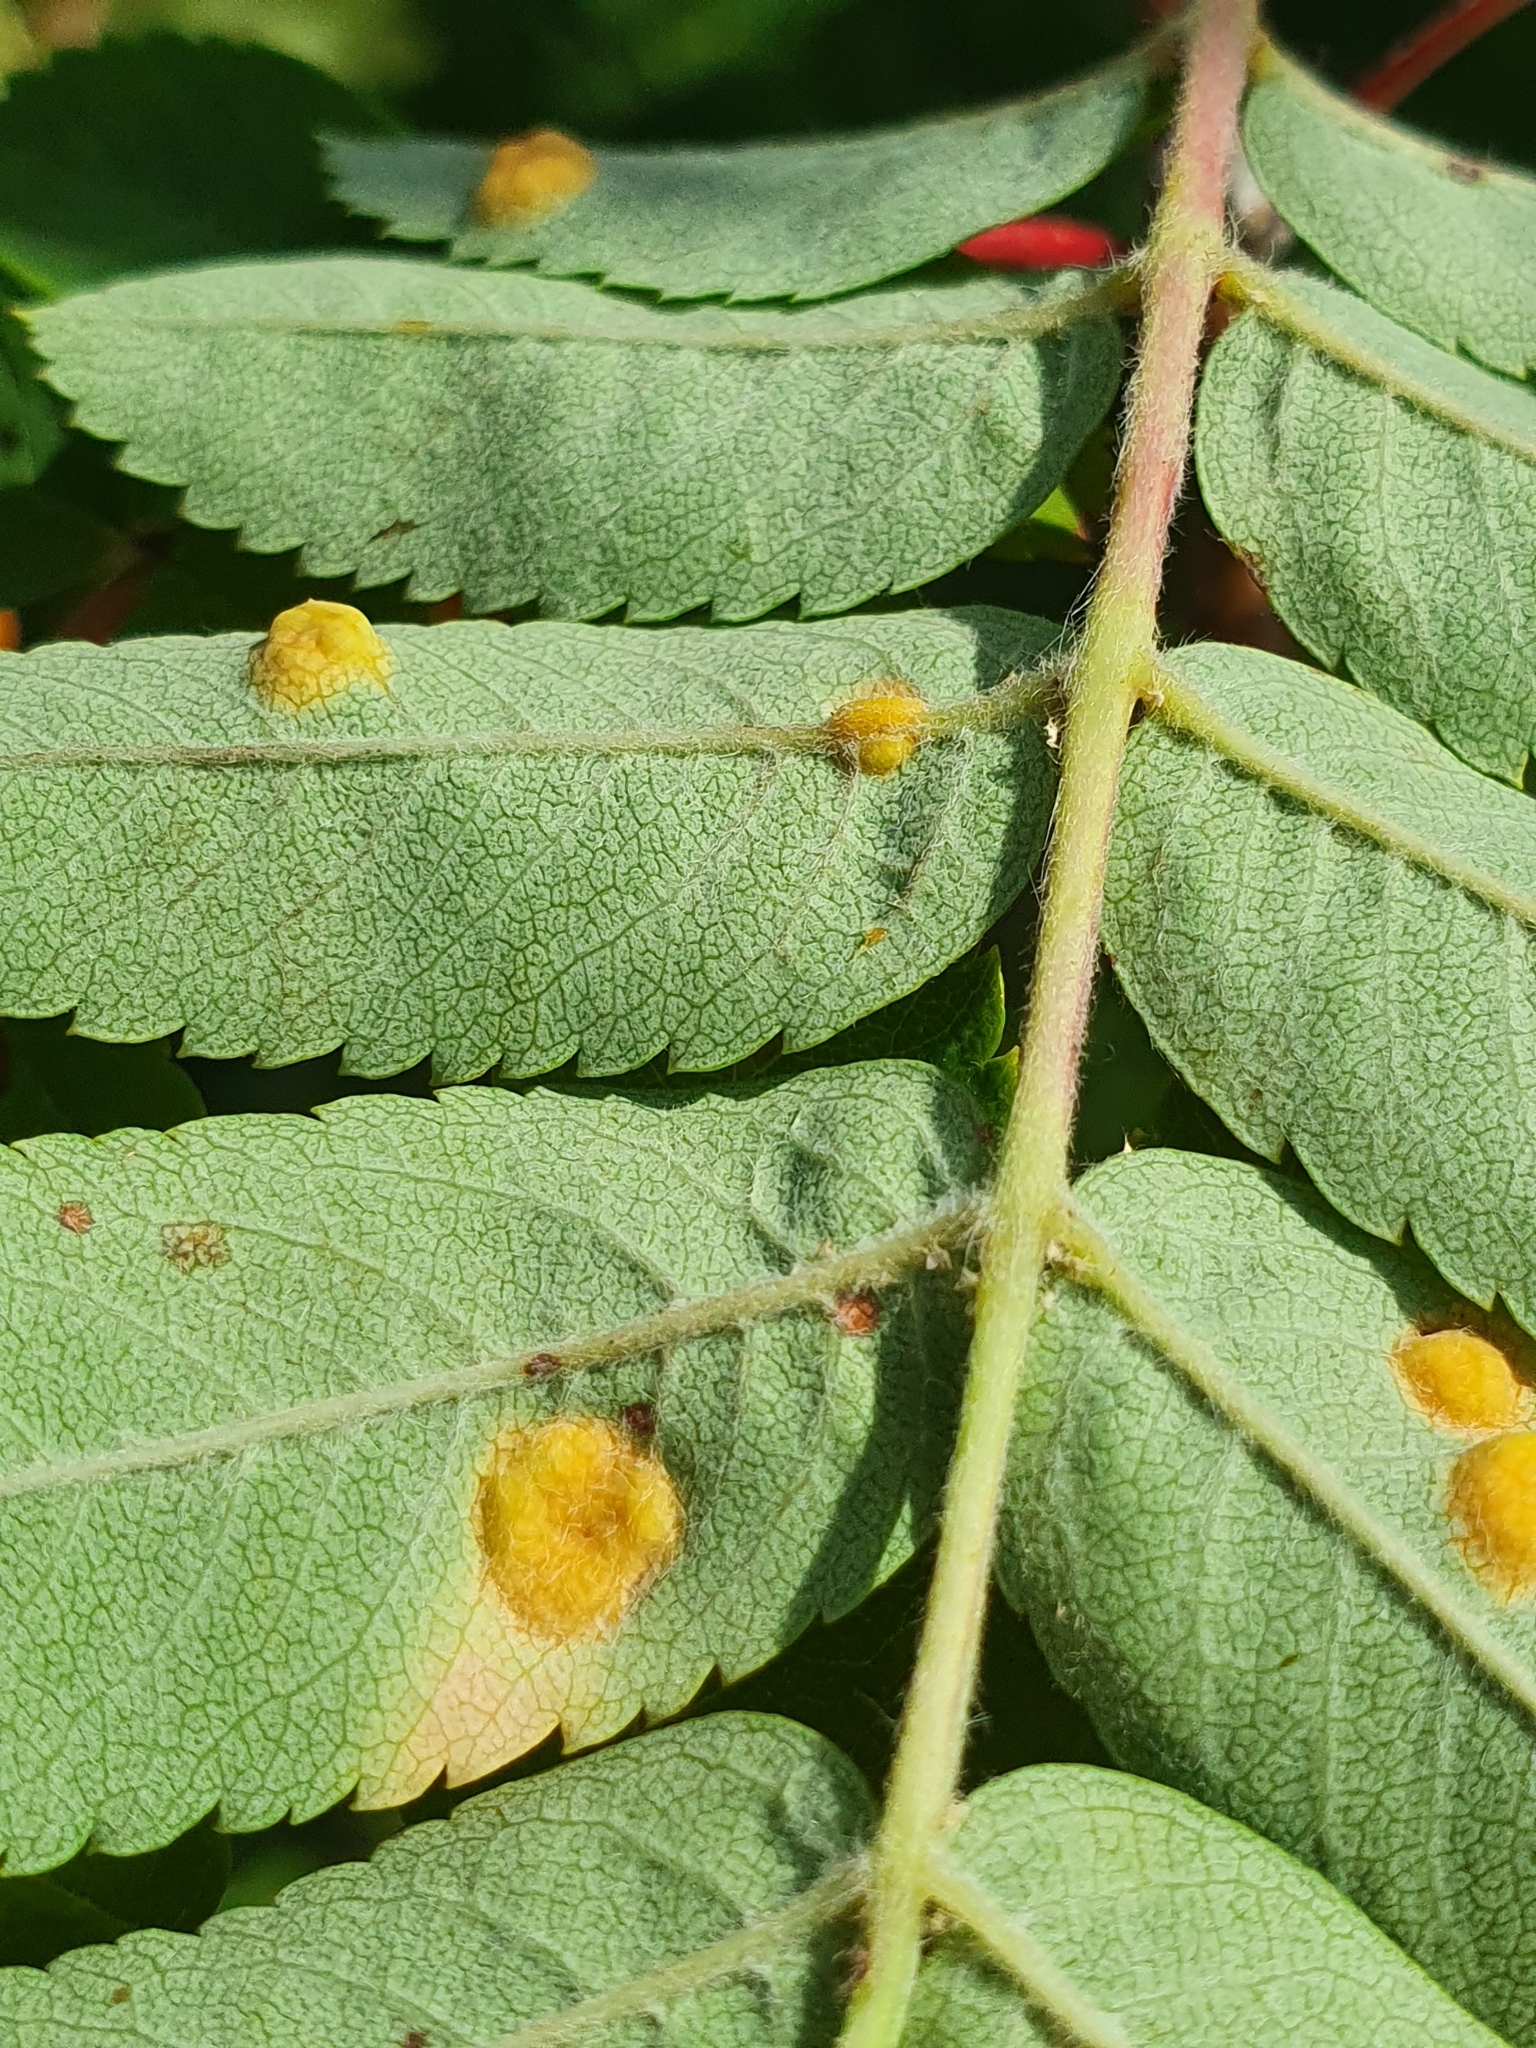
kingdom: Fungi
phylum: Basidiomycota
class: Pucciniomycetes
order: Pucciniales
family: Gymnosporangiaceae
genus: Gymnosporangium
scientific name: Gymnosporangium cornutum
